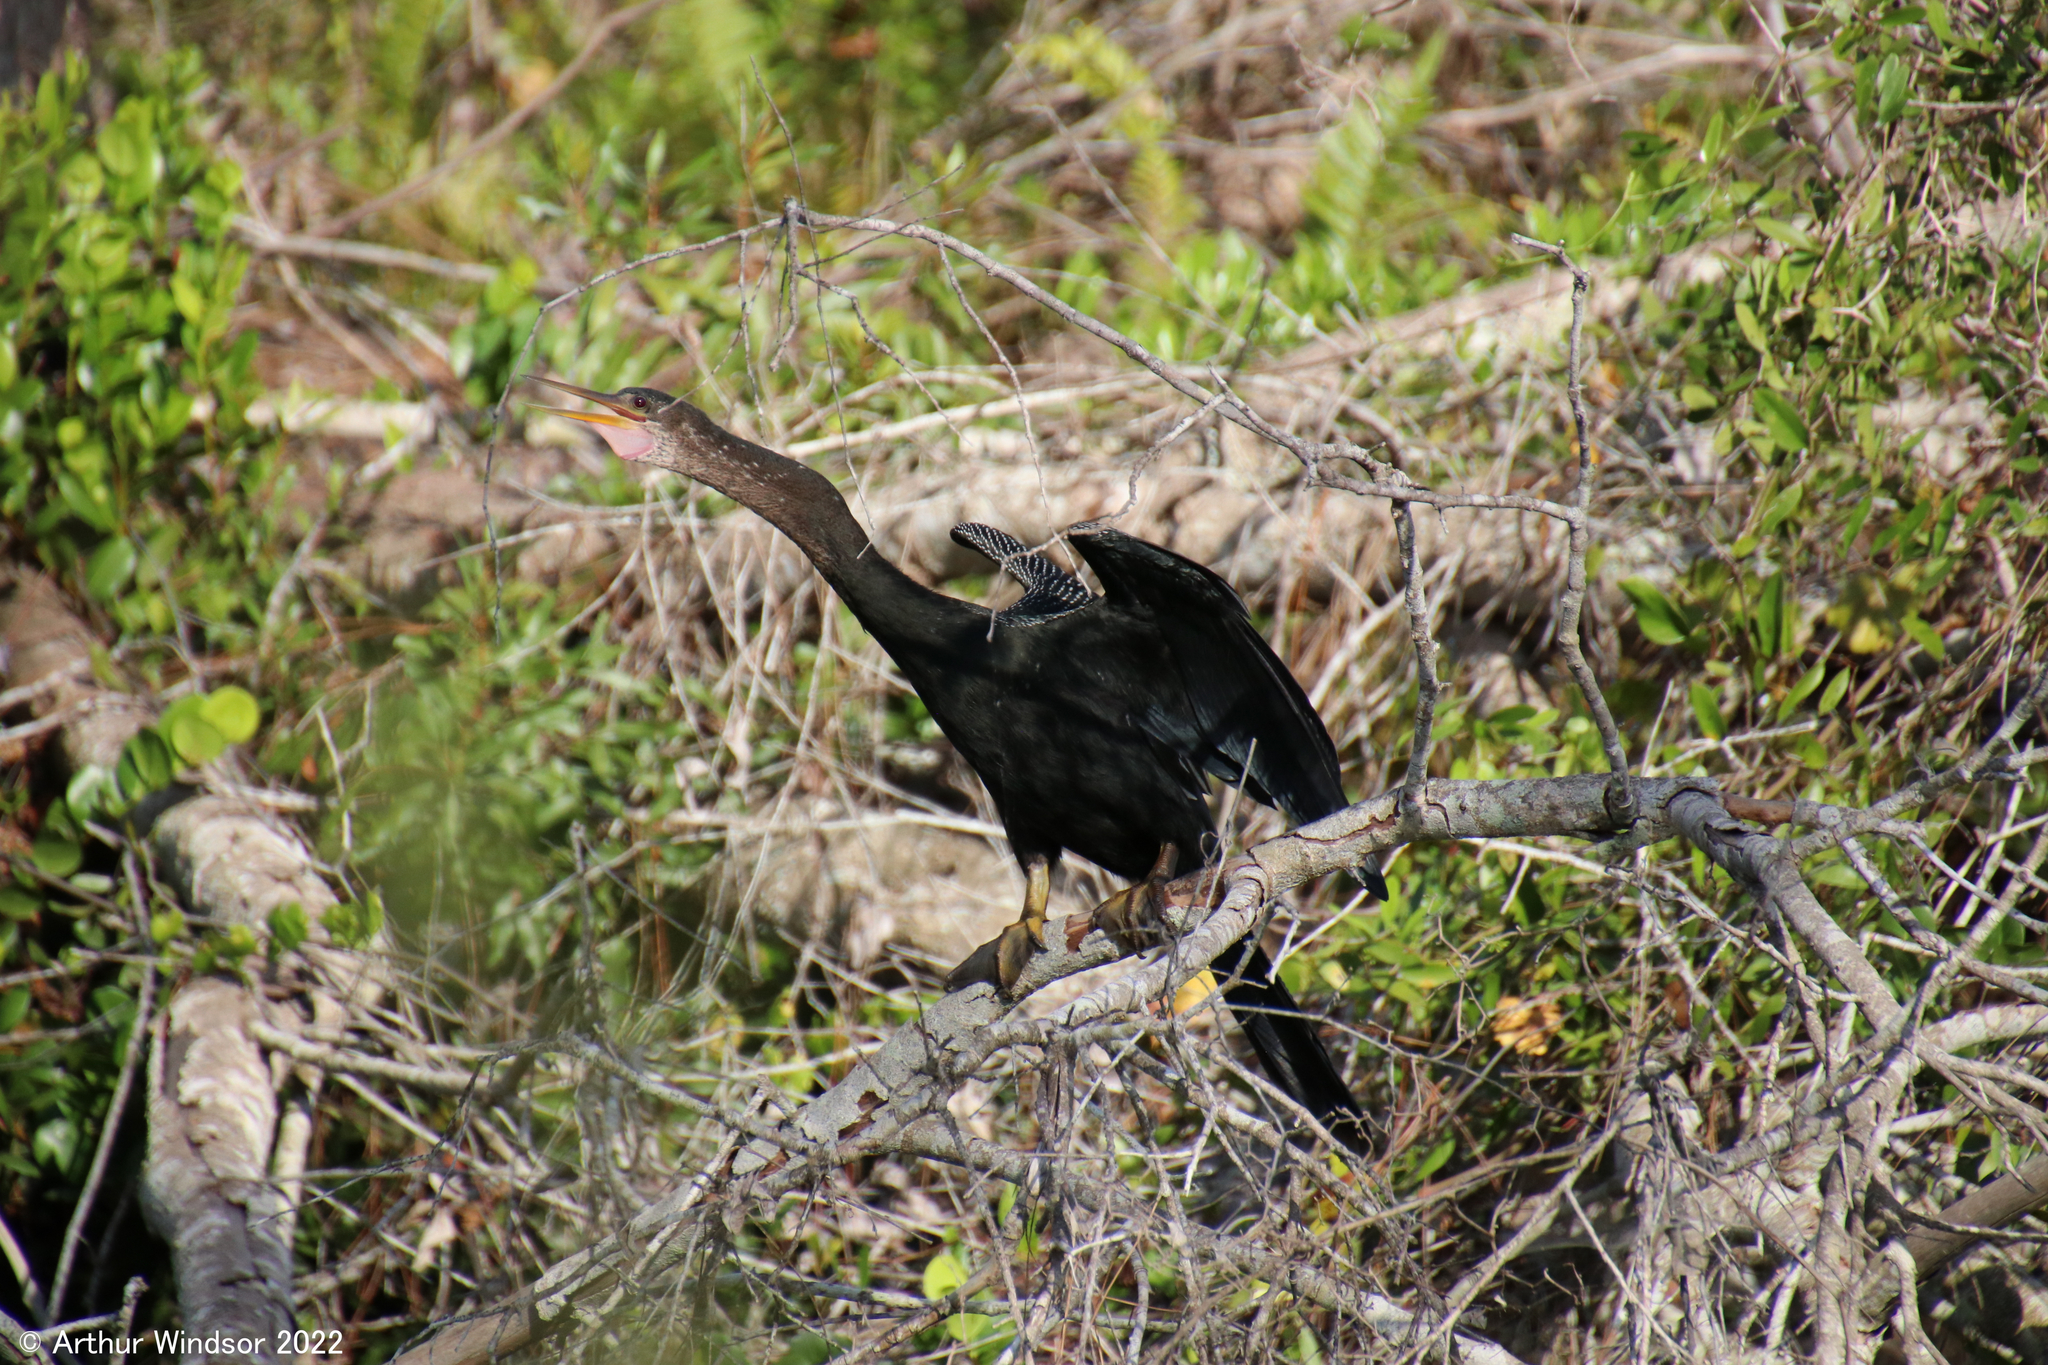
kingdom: Animalia
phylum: Chordata
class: Aves
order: Suliformes
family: Anhingidae
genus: Anhinga
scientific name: Anhinga anhinga
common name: Anhinga
